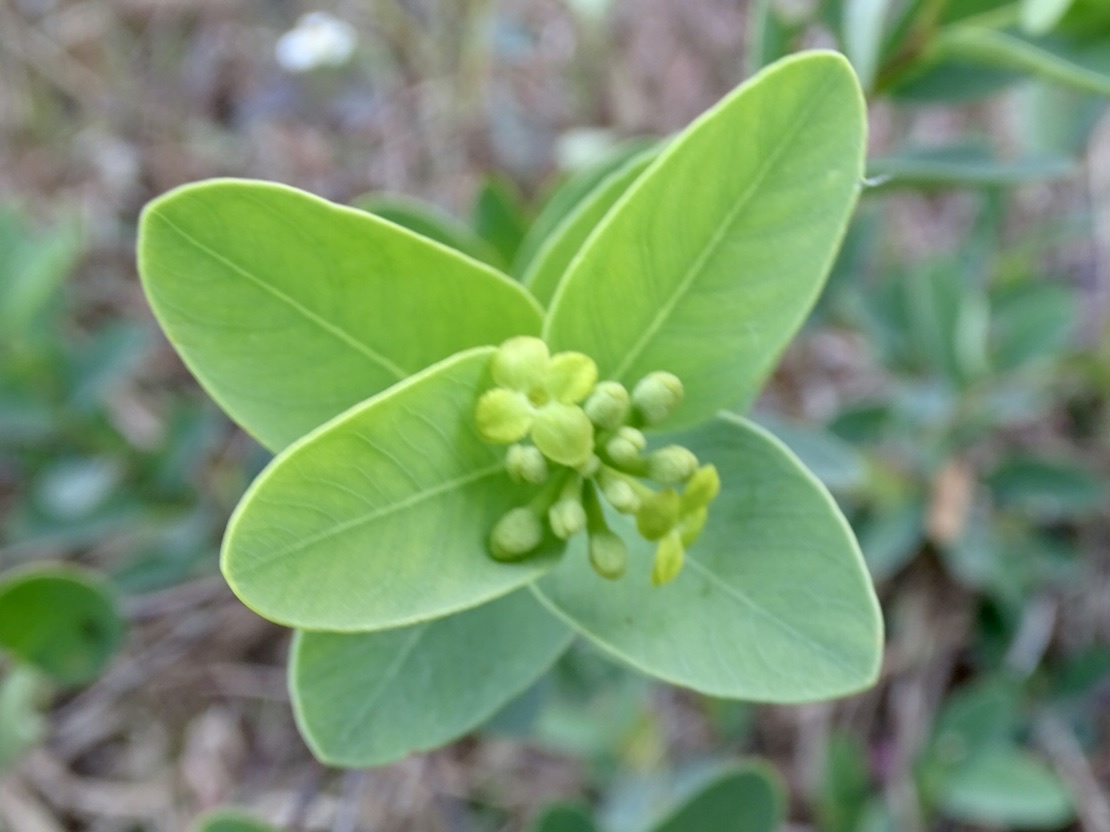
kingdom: Plantae
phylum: Tracheophyta
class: Magnoliopsida
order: Malvales
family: Thymelaeaceae
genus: Wikstroemia
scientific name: Wikstroemia indica
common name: Tiebush
